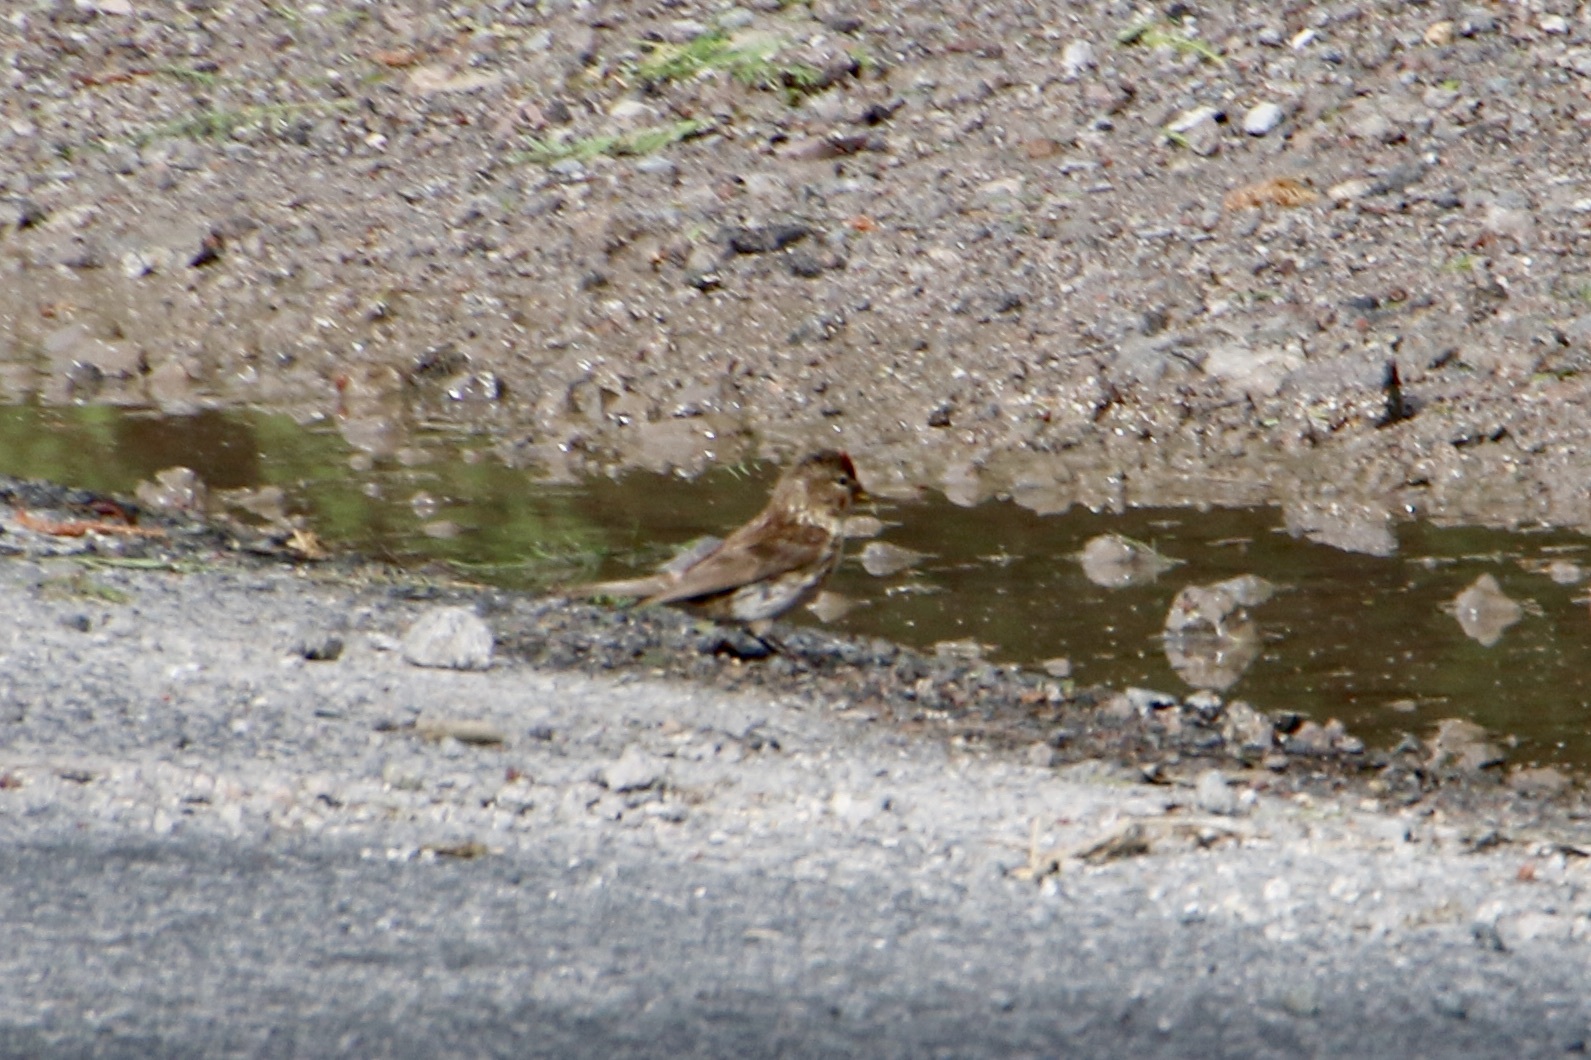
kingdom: Animalia
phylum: Chordata
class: Aves
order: Passeriformes
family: Fringillidae
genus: Acanthis
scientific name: Acanthis flammea
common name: Common redpoll
